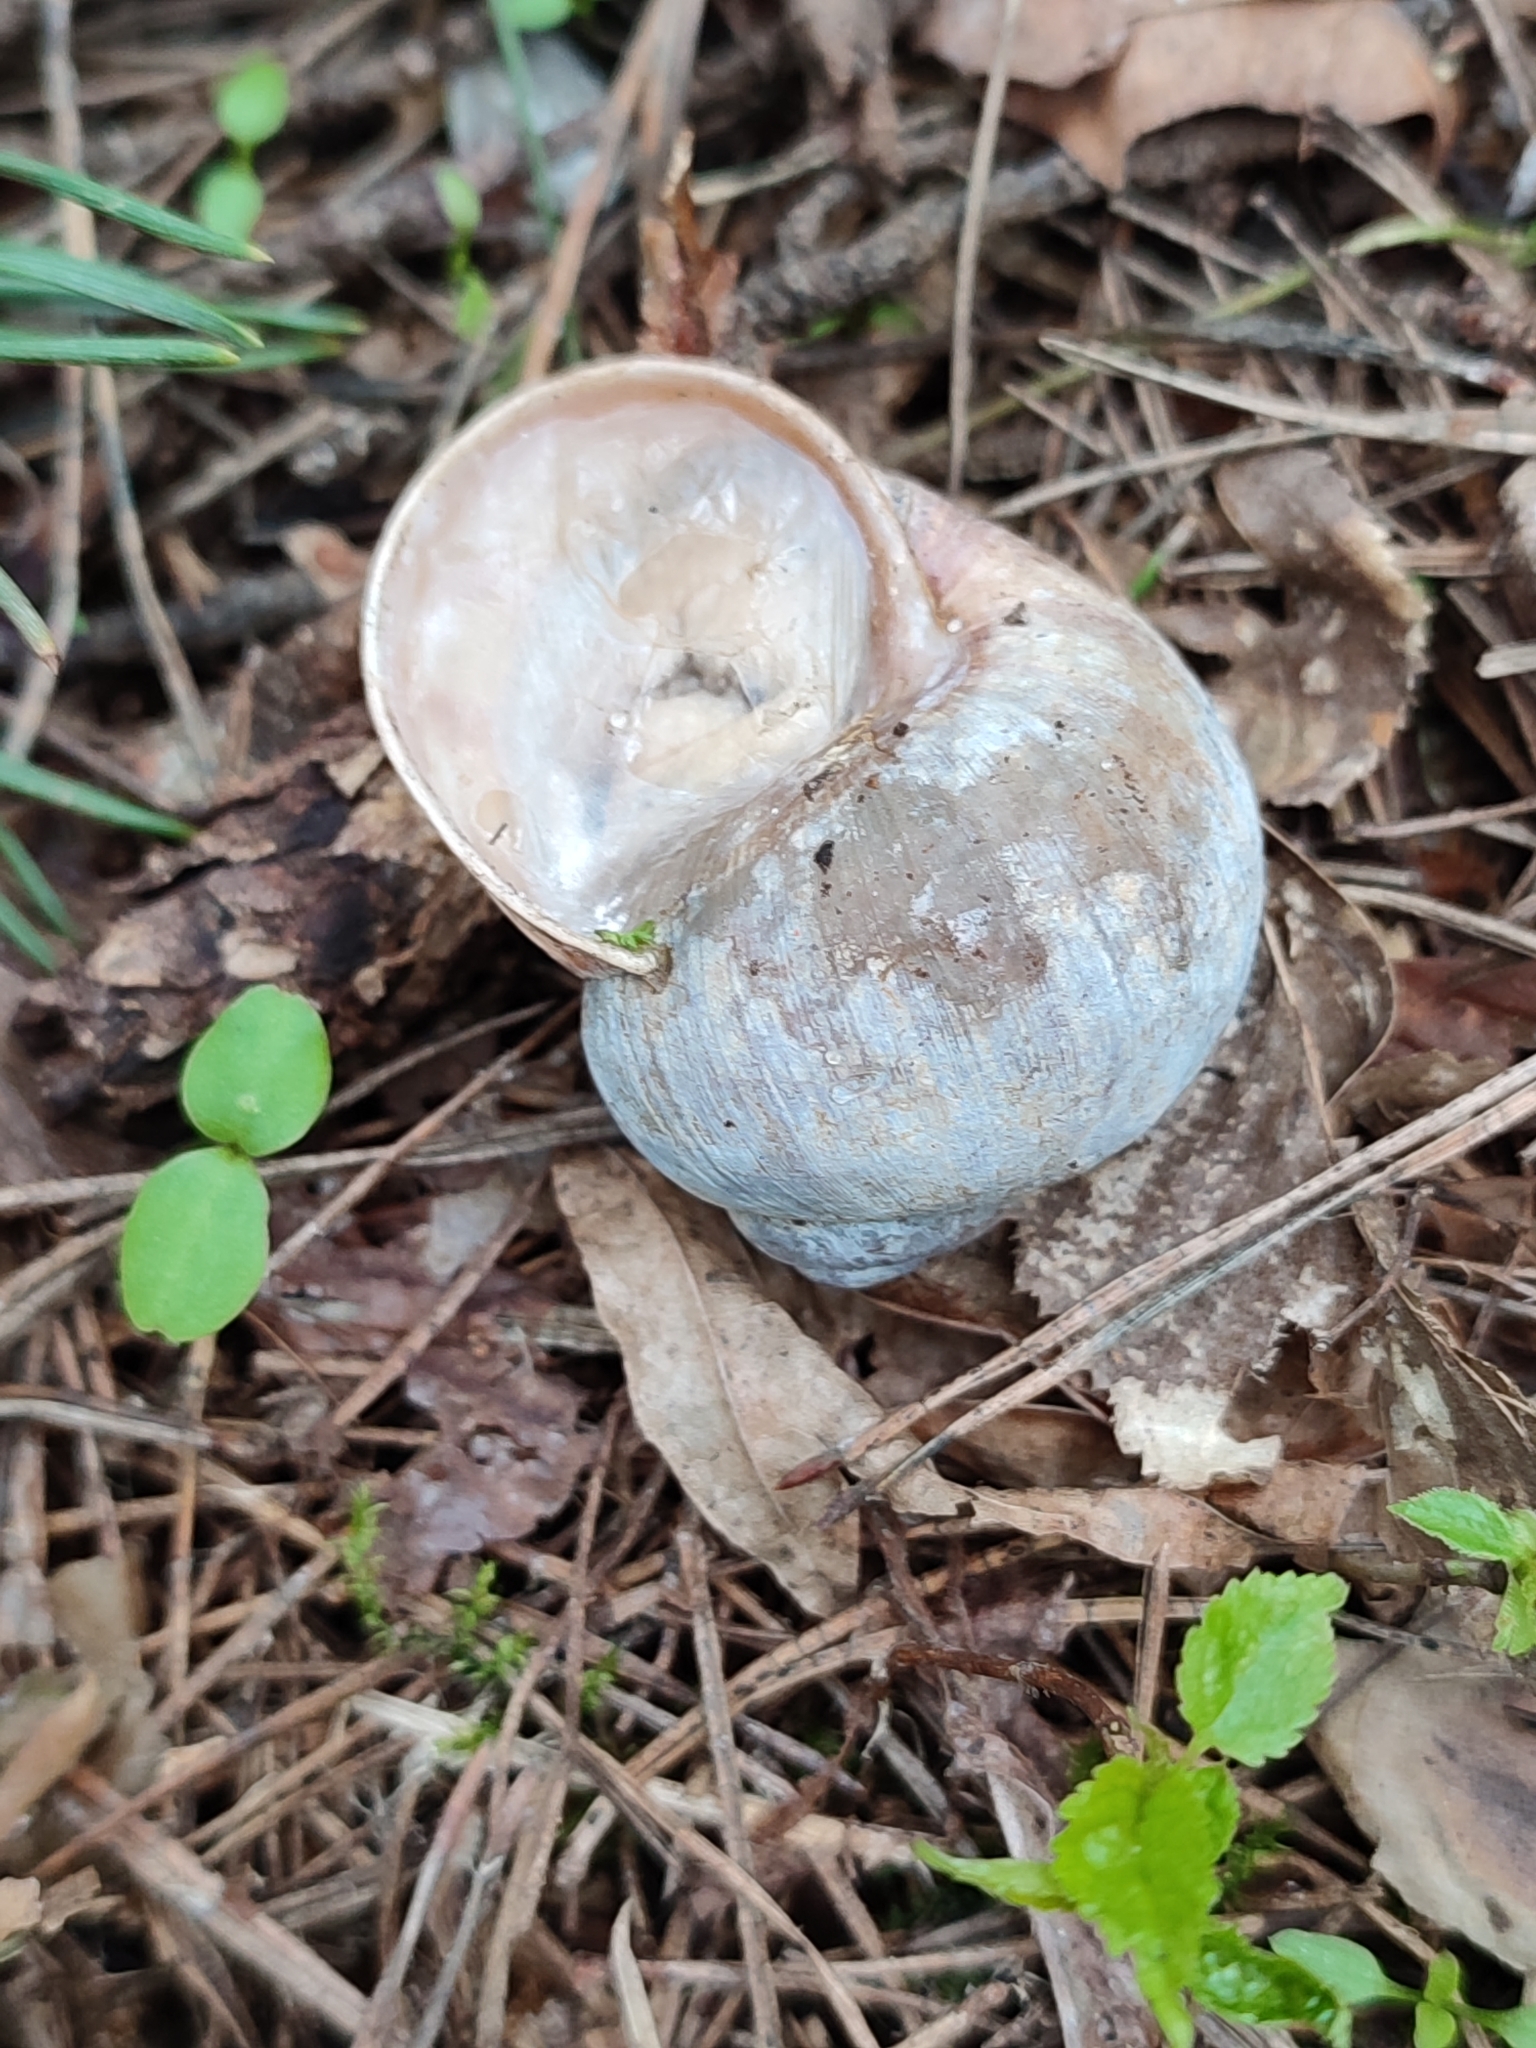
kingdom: Animalia
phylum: Mollusca
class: Gastropoda
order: Stylommatophora
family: Helicidae
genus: Helix
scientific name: Helix pomatia
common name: Roman snail
